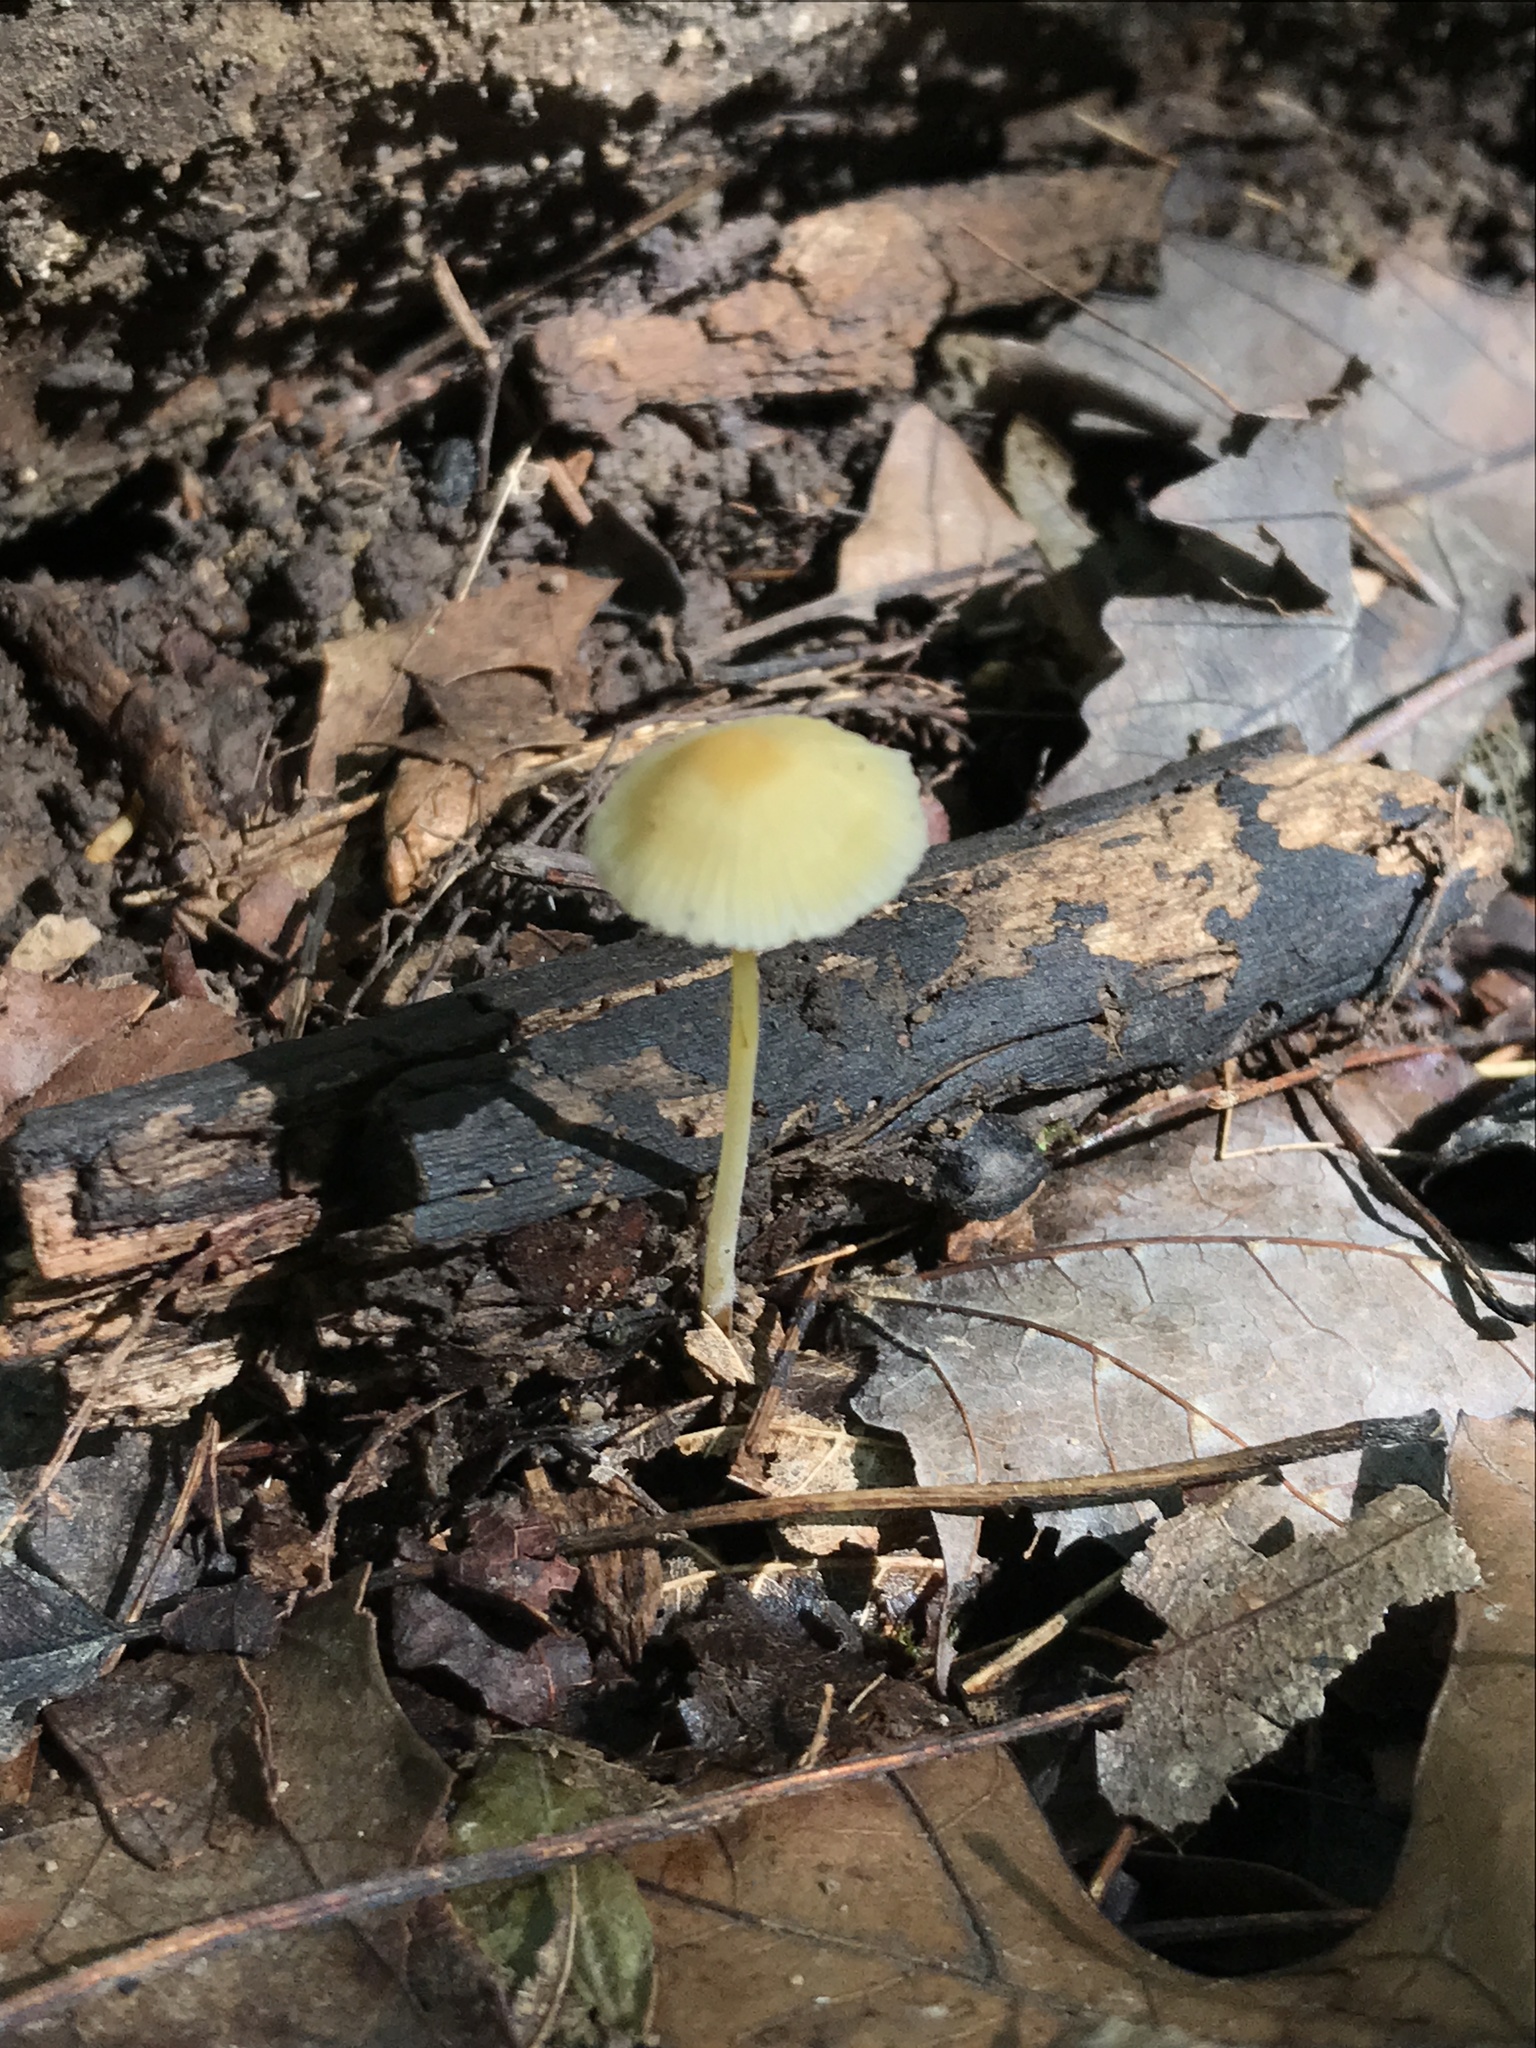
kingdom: Fungi
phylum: Basidiomycota
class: Agaricomycetes
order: Agaricales
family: Mycenaceae
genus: Mycena
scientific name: Mycena crocea
